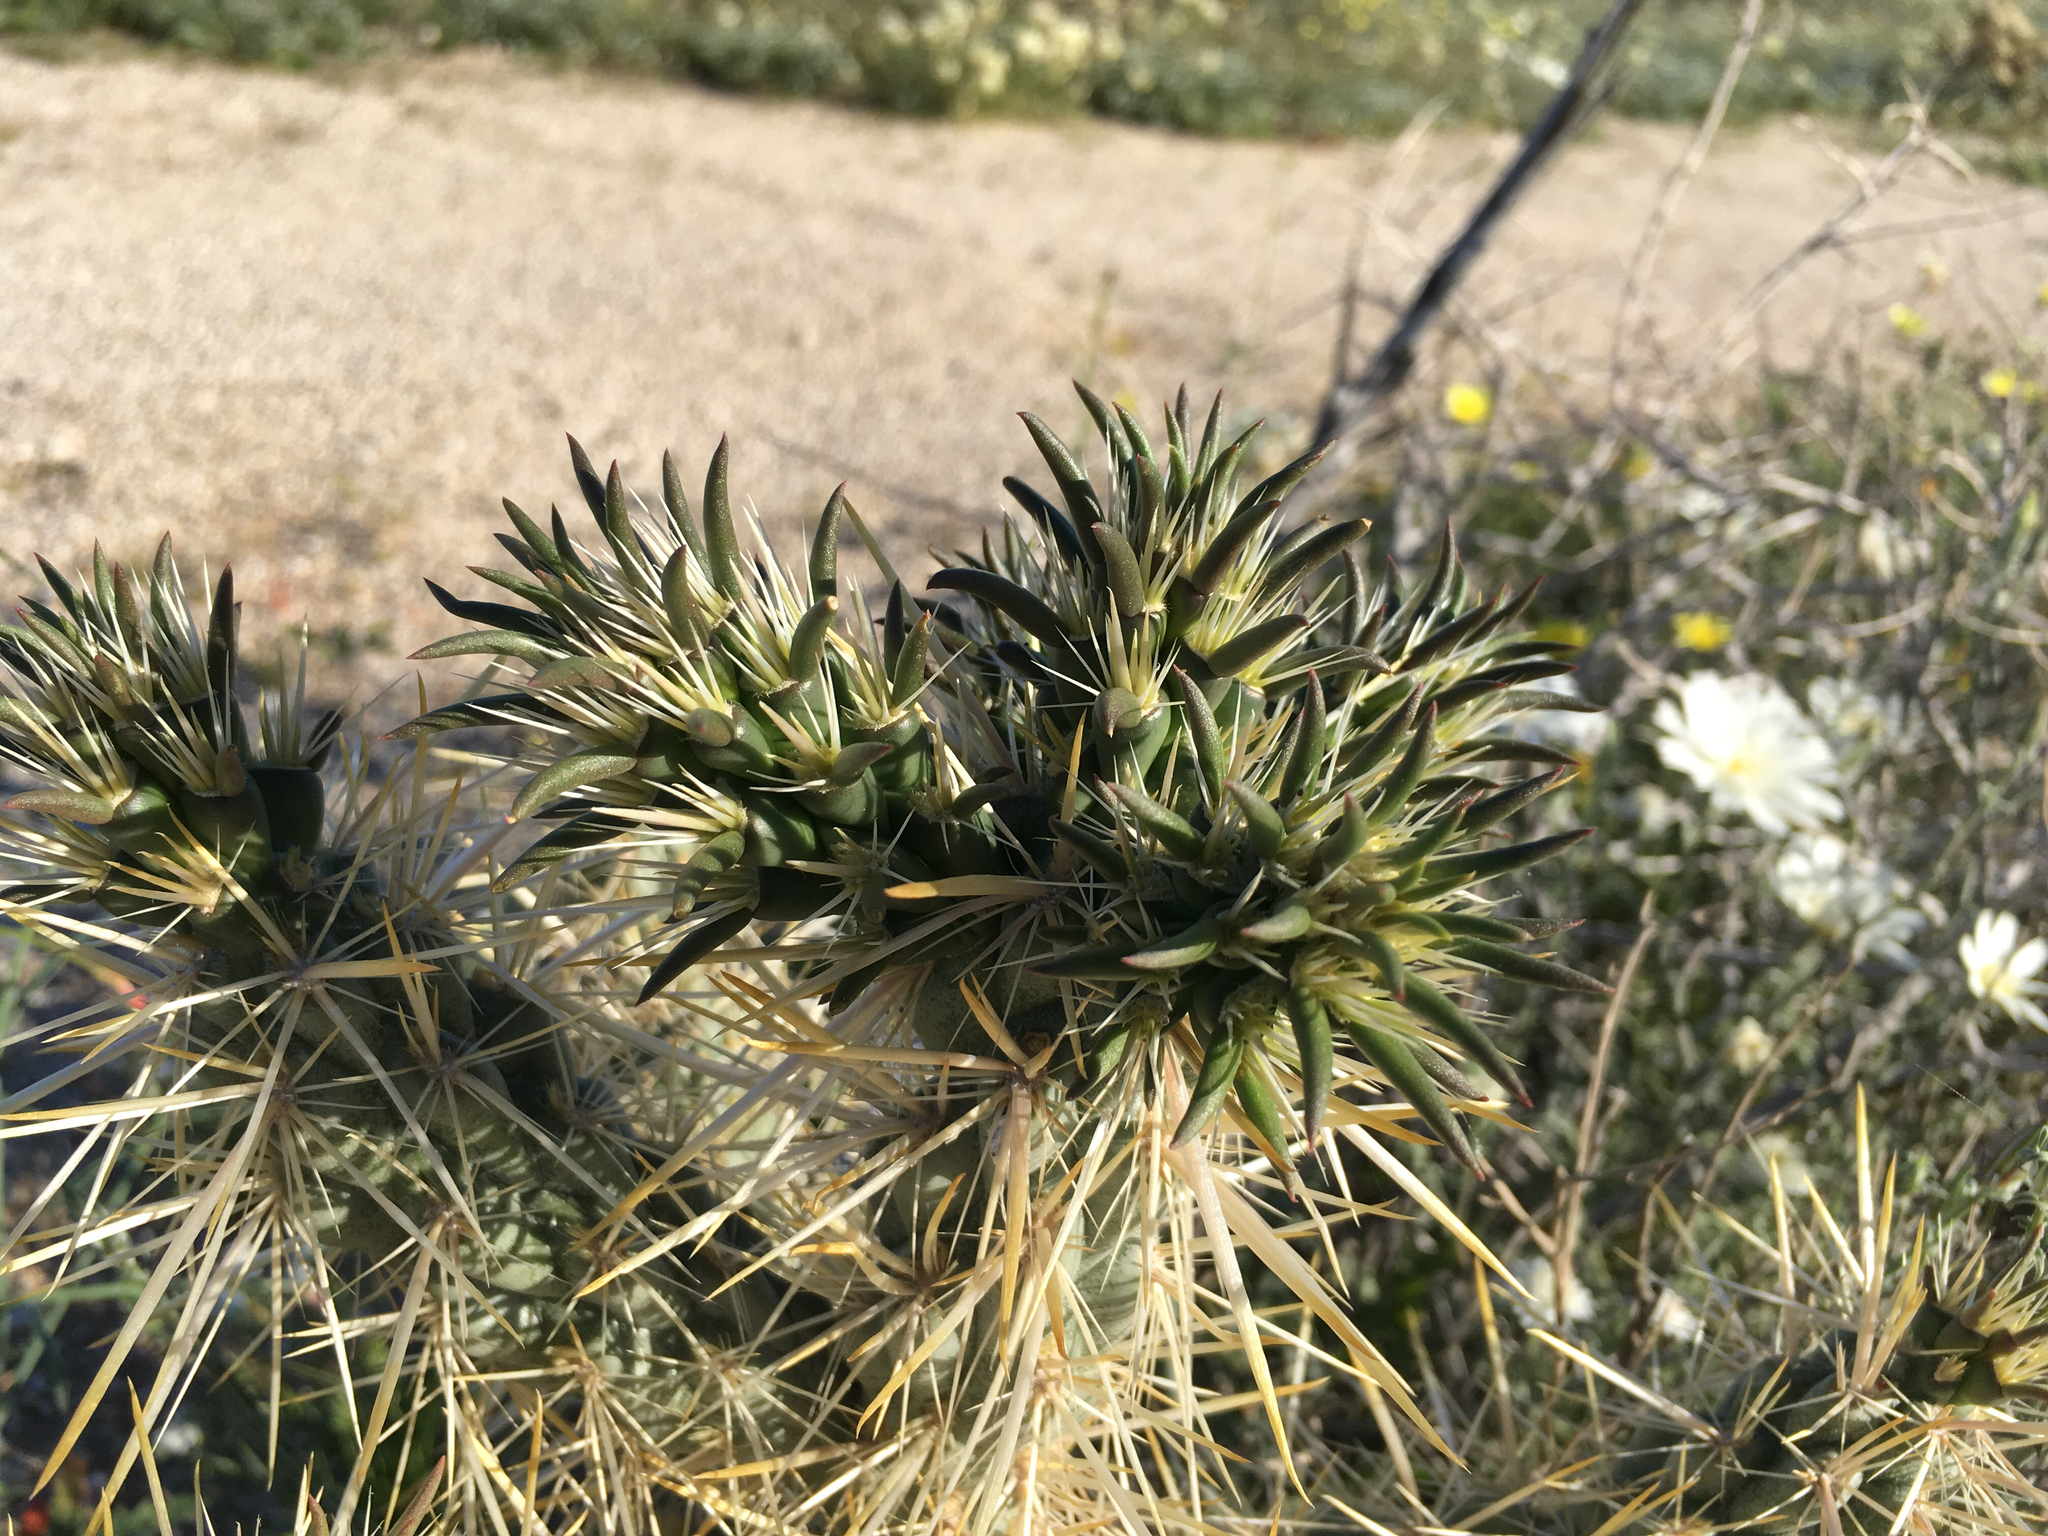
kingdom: Plantae
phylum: Tracheophyta
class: Magnoliopsida
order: Caryophyllales
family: Cactaceae
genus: Cylindropuntia
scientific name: Cylindropuntia echinocarpa
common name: Ground cholla
